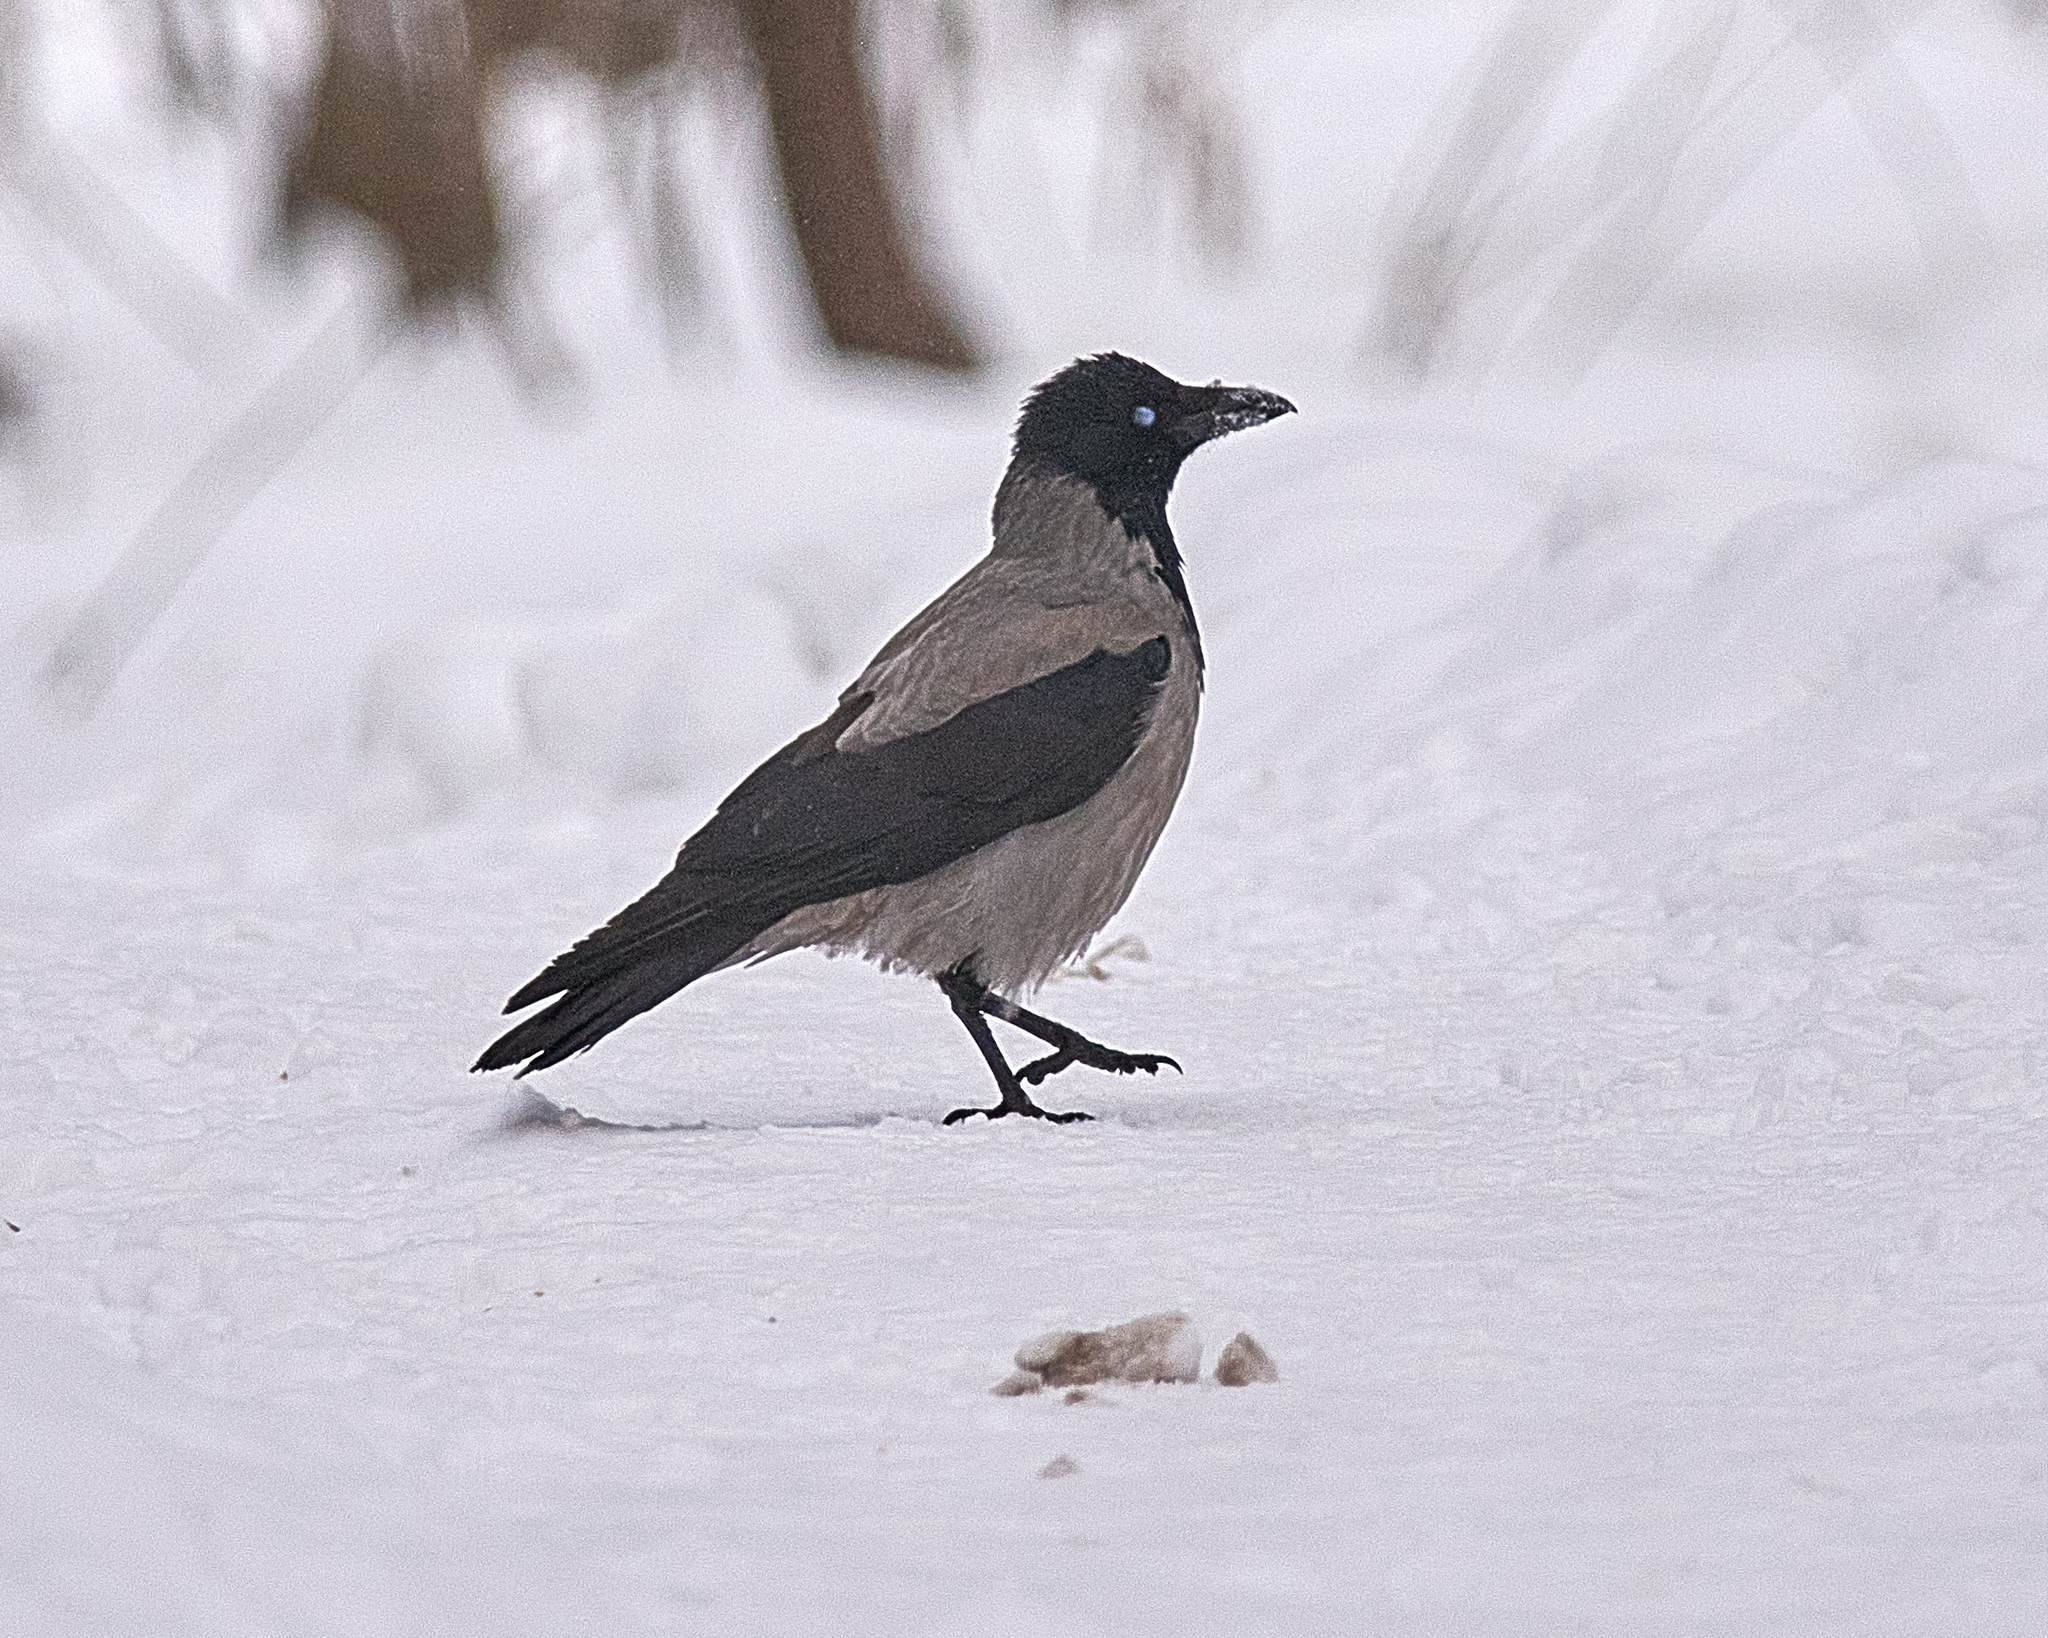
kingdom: Animalia
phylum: Chordata
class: Aves
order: Passeriformes
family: Corvidae
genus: Corvus
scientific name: Corvus cornix
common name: Hooded crow
